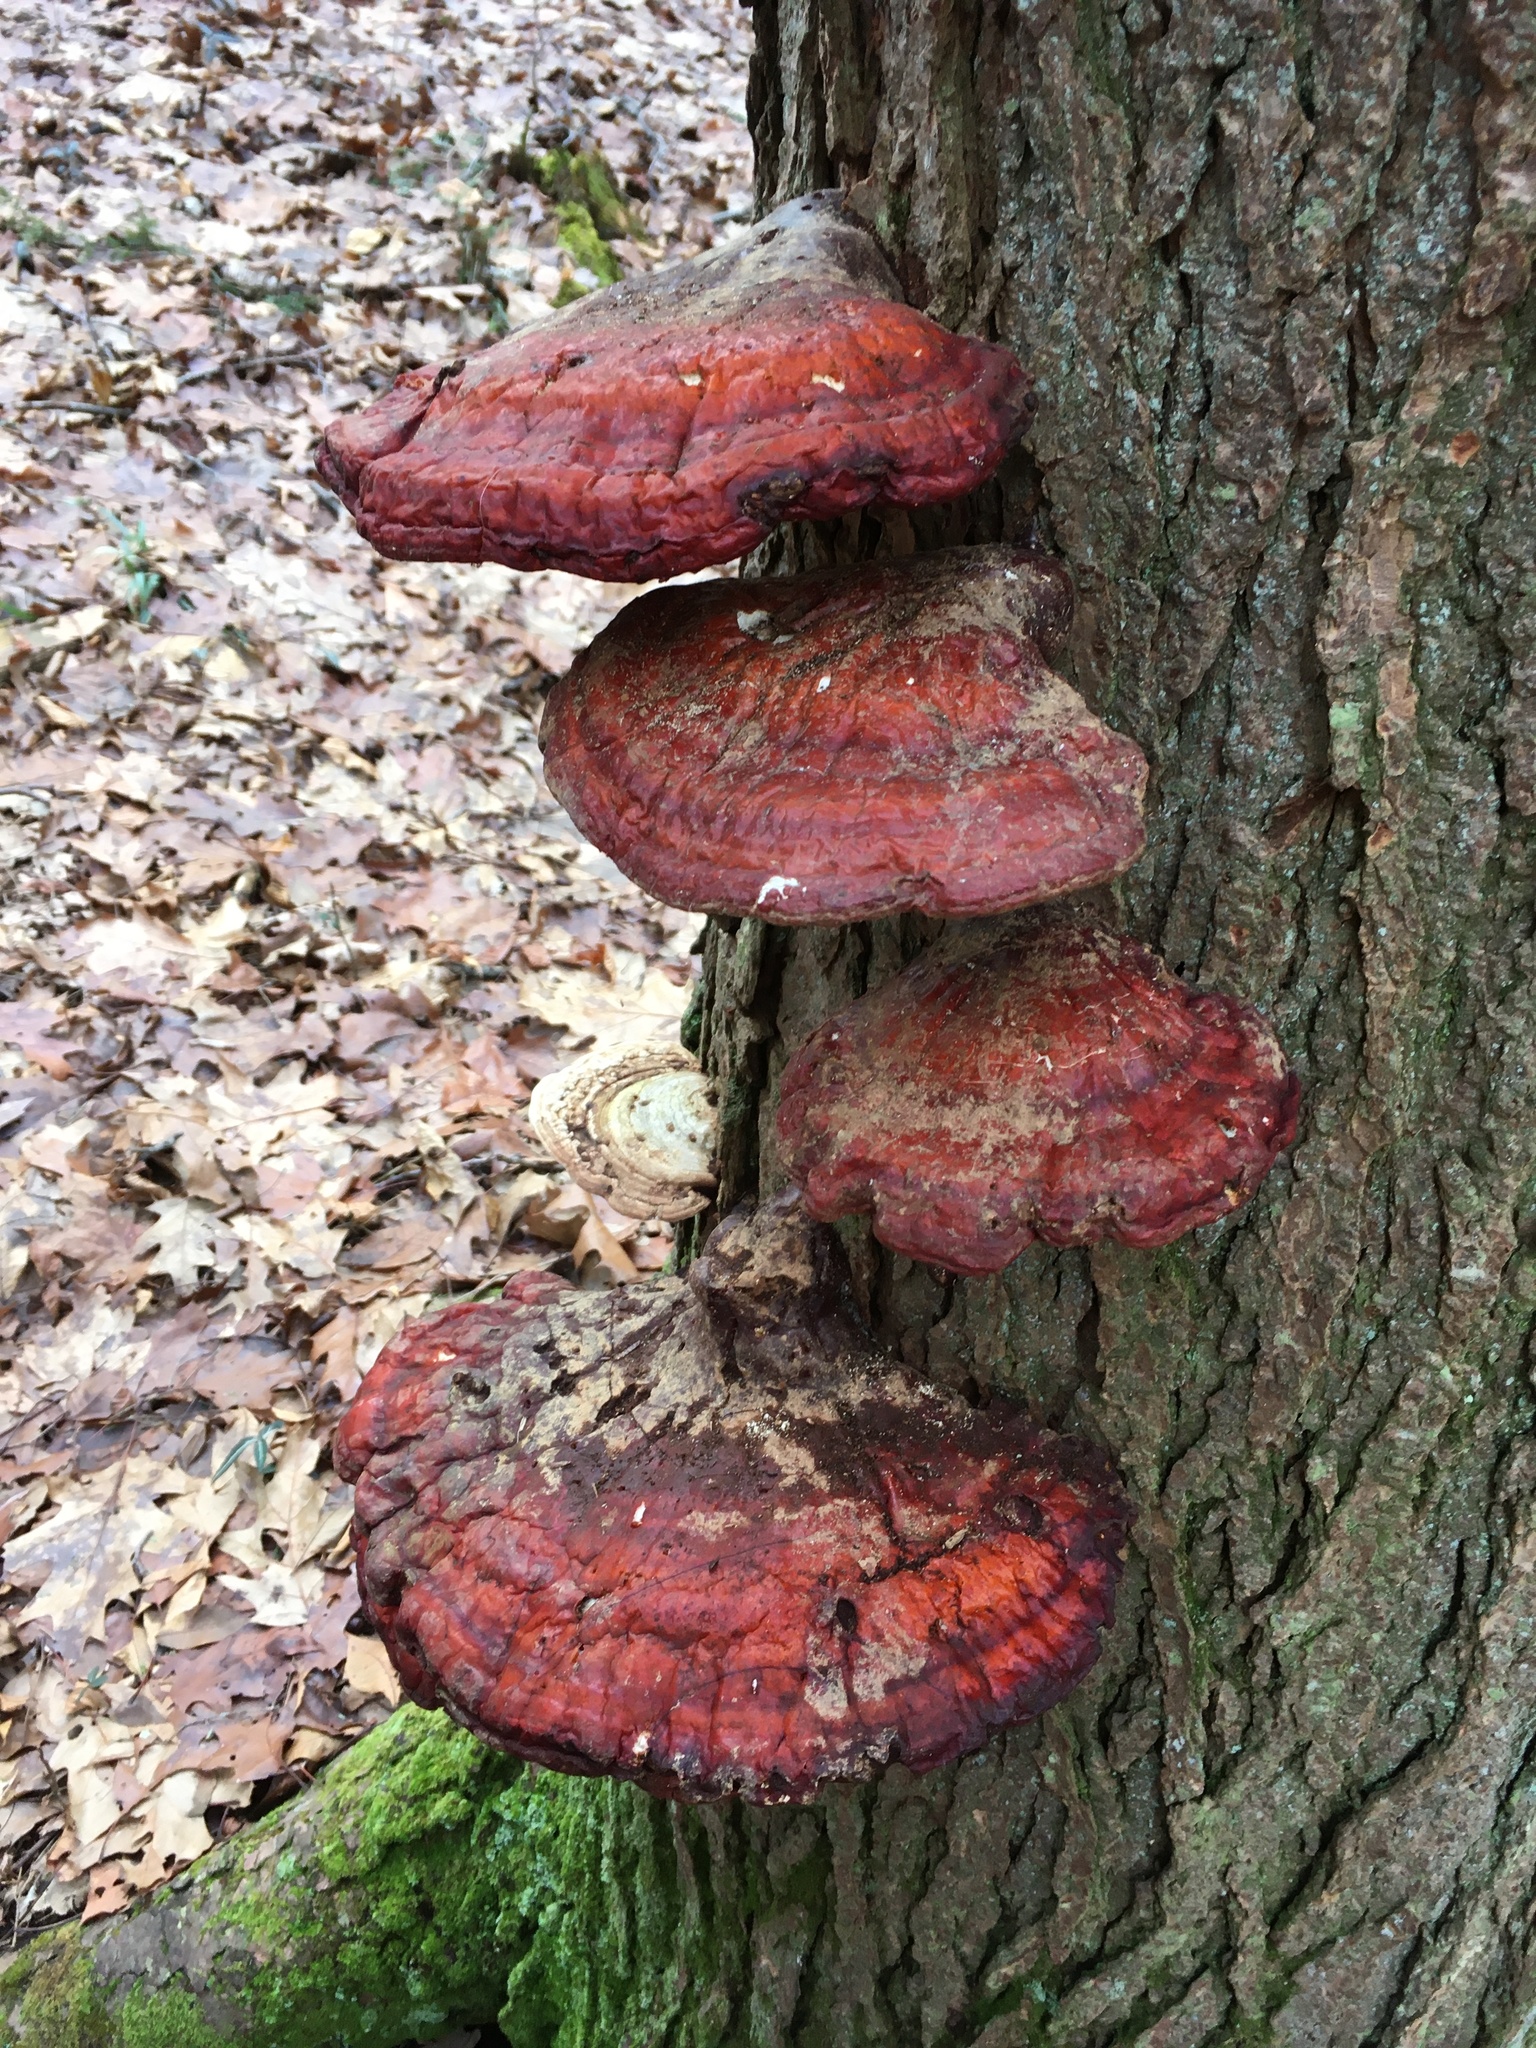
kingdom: Fungi
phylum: Basidiomycota
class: Agaricomycetes
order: Polyporales
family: Polyporaceae
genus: Ganoderma
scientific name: Ganoderma tsugae
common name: Hemlock varnish shelf
